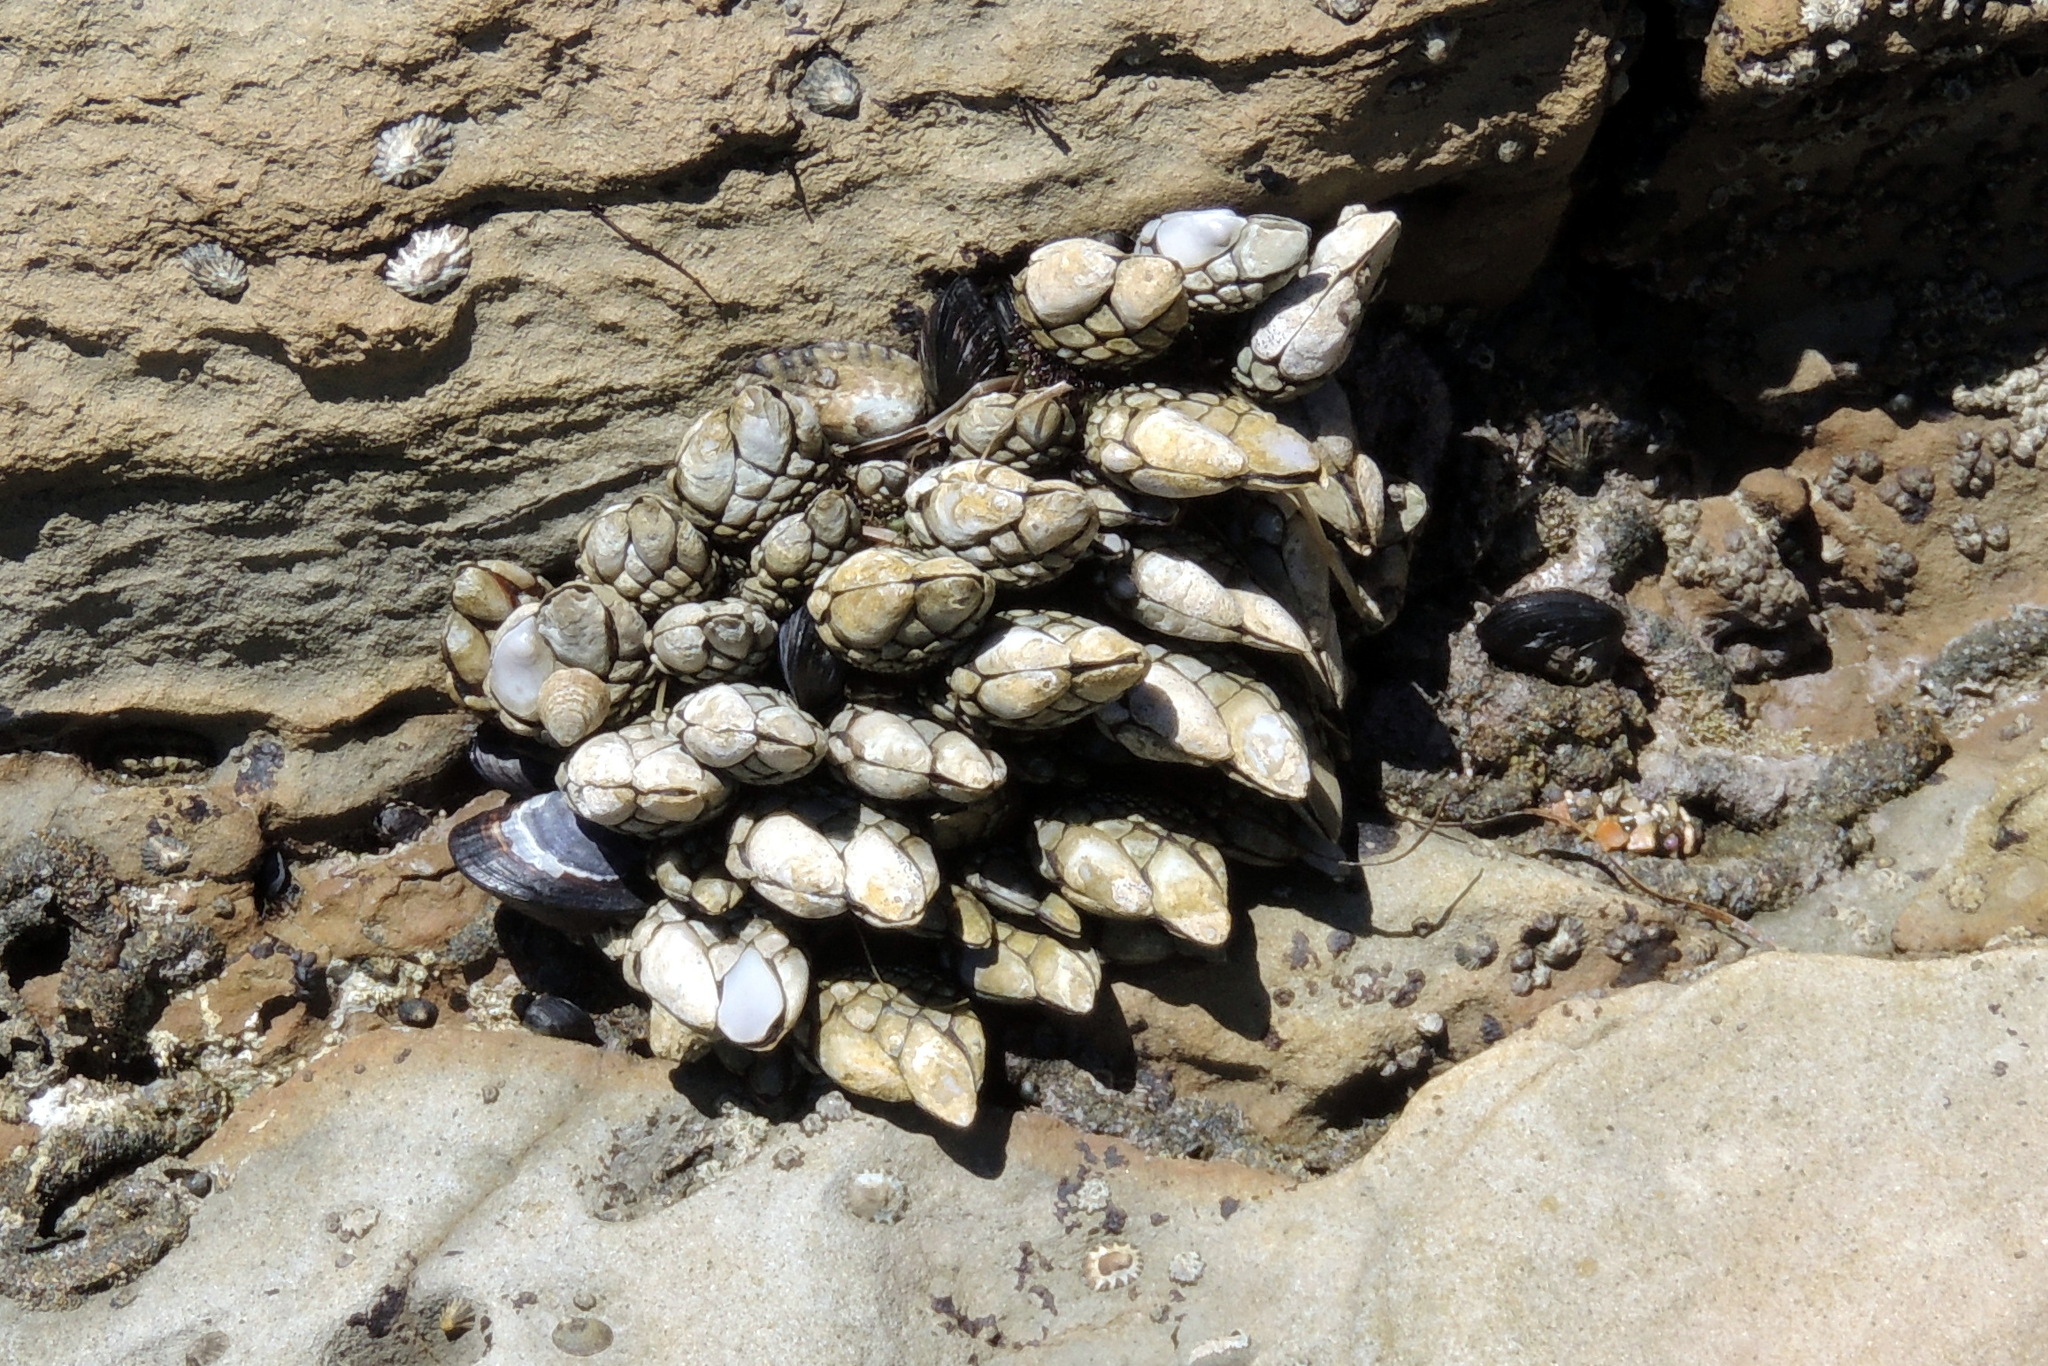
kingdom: Animalia
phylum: Arthropoda
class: Maxillopoda
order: Pedunculata
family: Pollicipedidae
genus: Pollicipes
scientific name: Pollicipes polymerus
